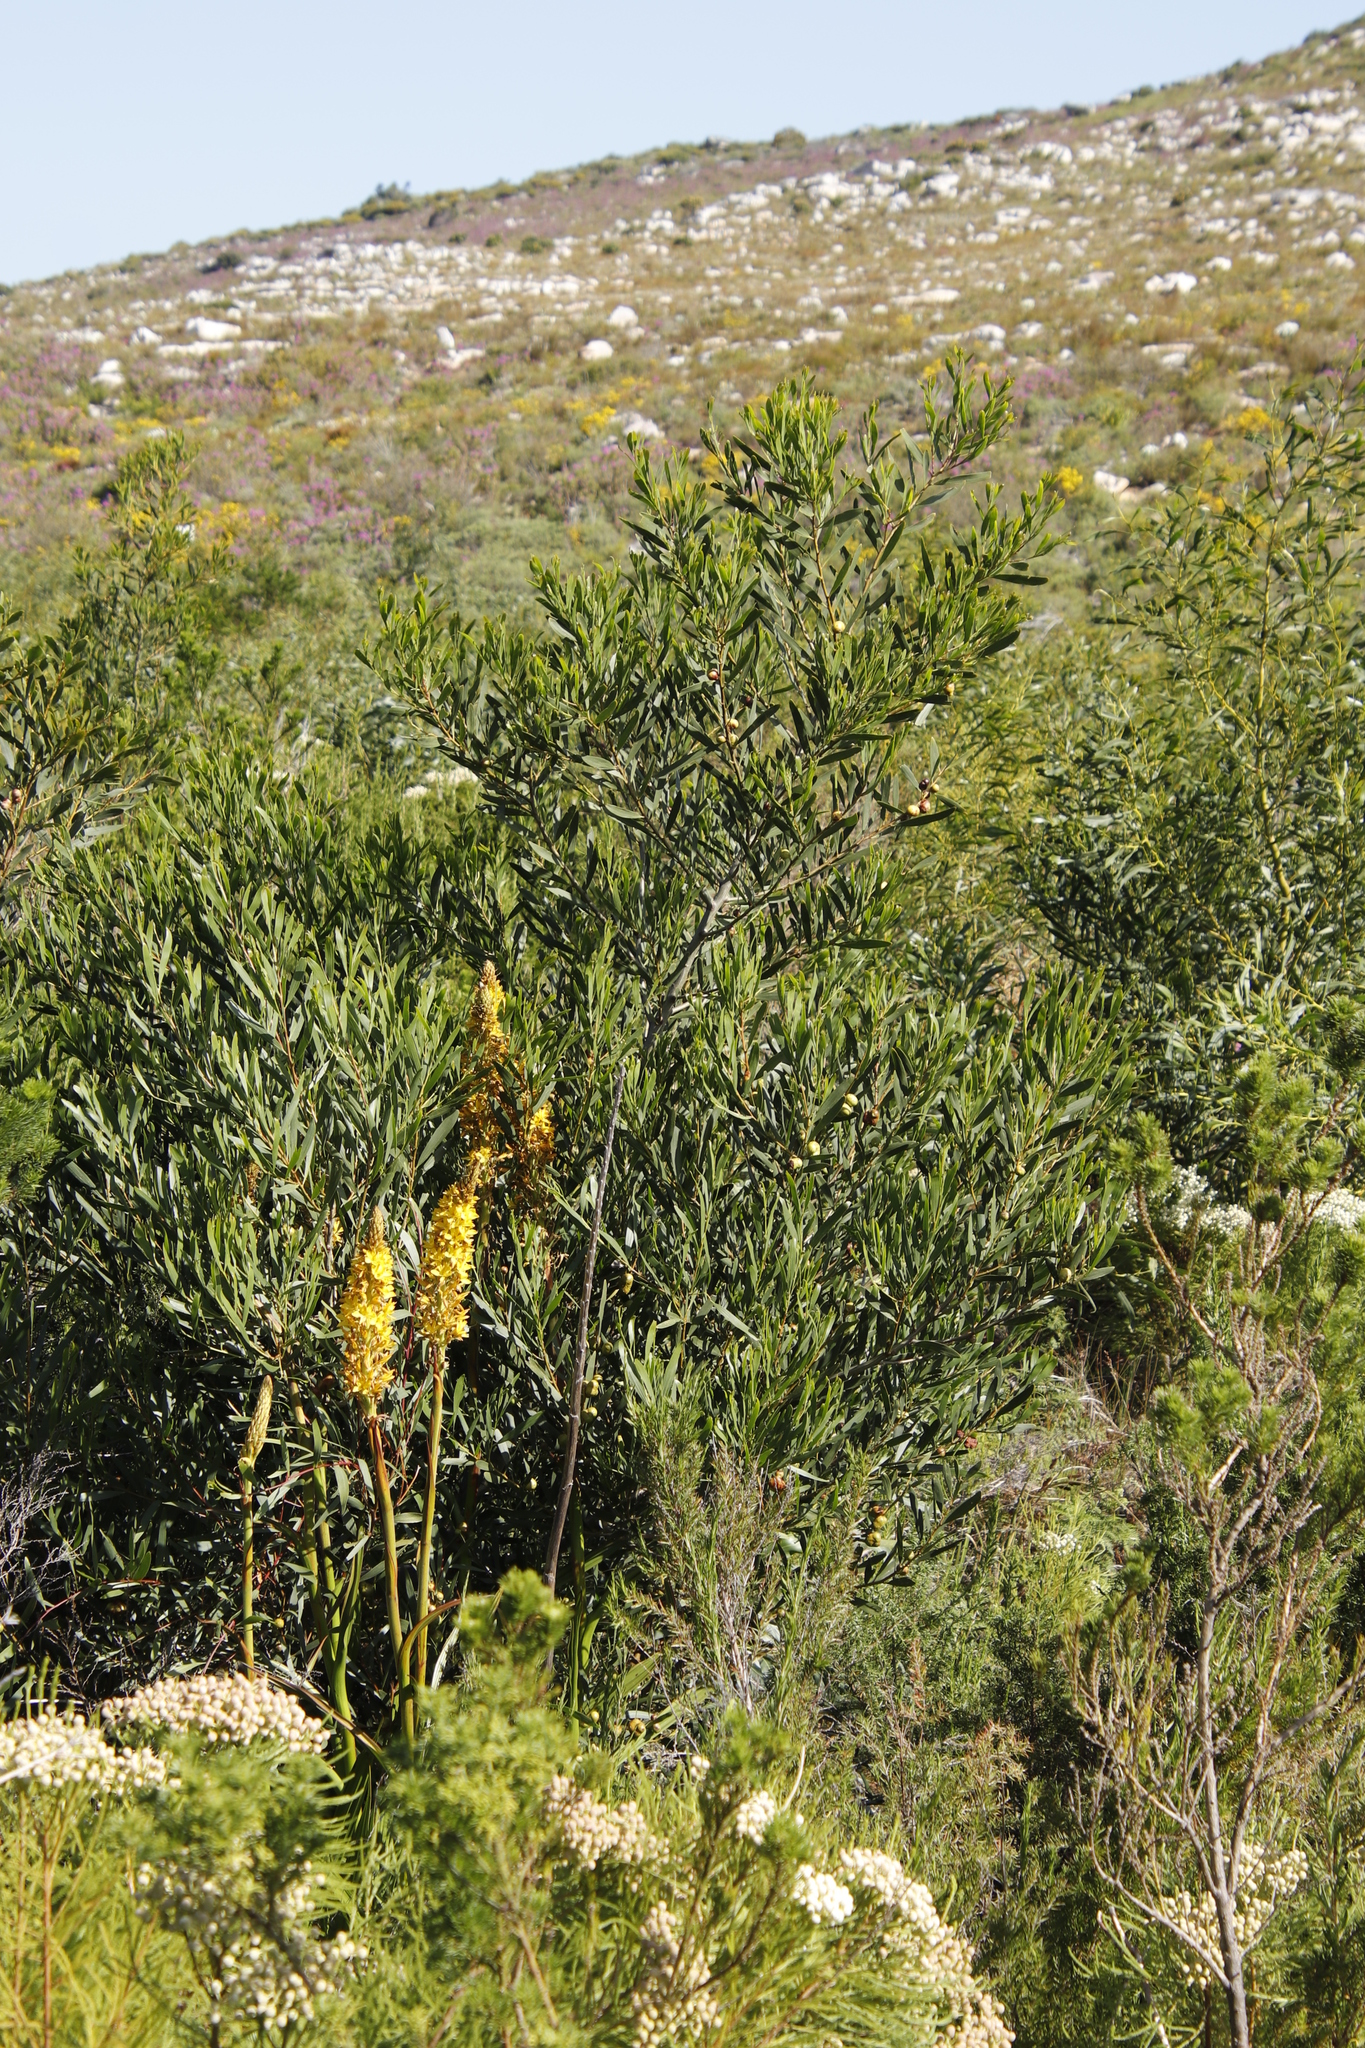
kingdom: Plantae
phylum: Tracheophyta
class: Magnoliopsida
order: Fabales
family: Fabaceae
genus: Acacia
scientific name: Acacia longifolia
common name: Sydney golden wattle
